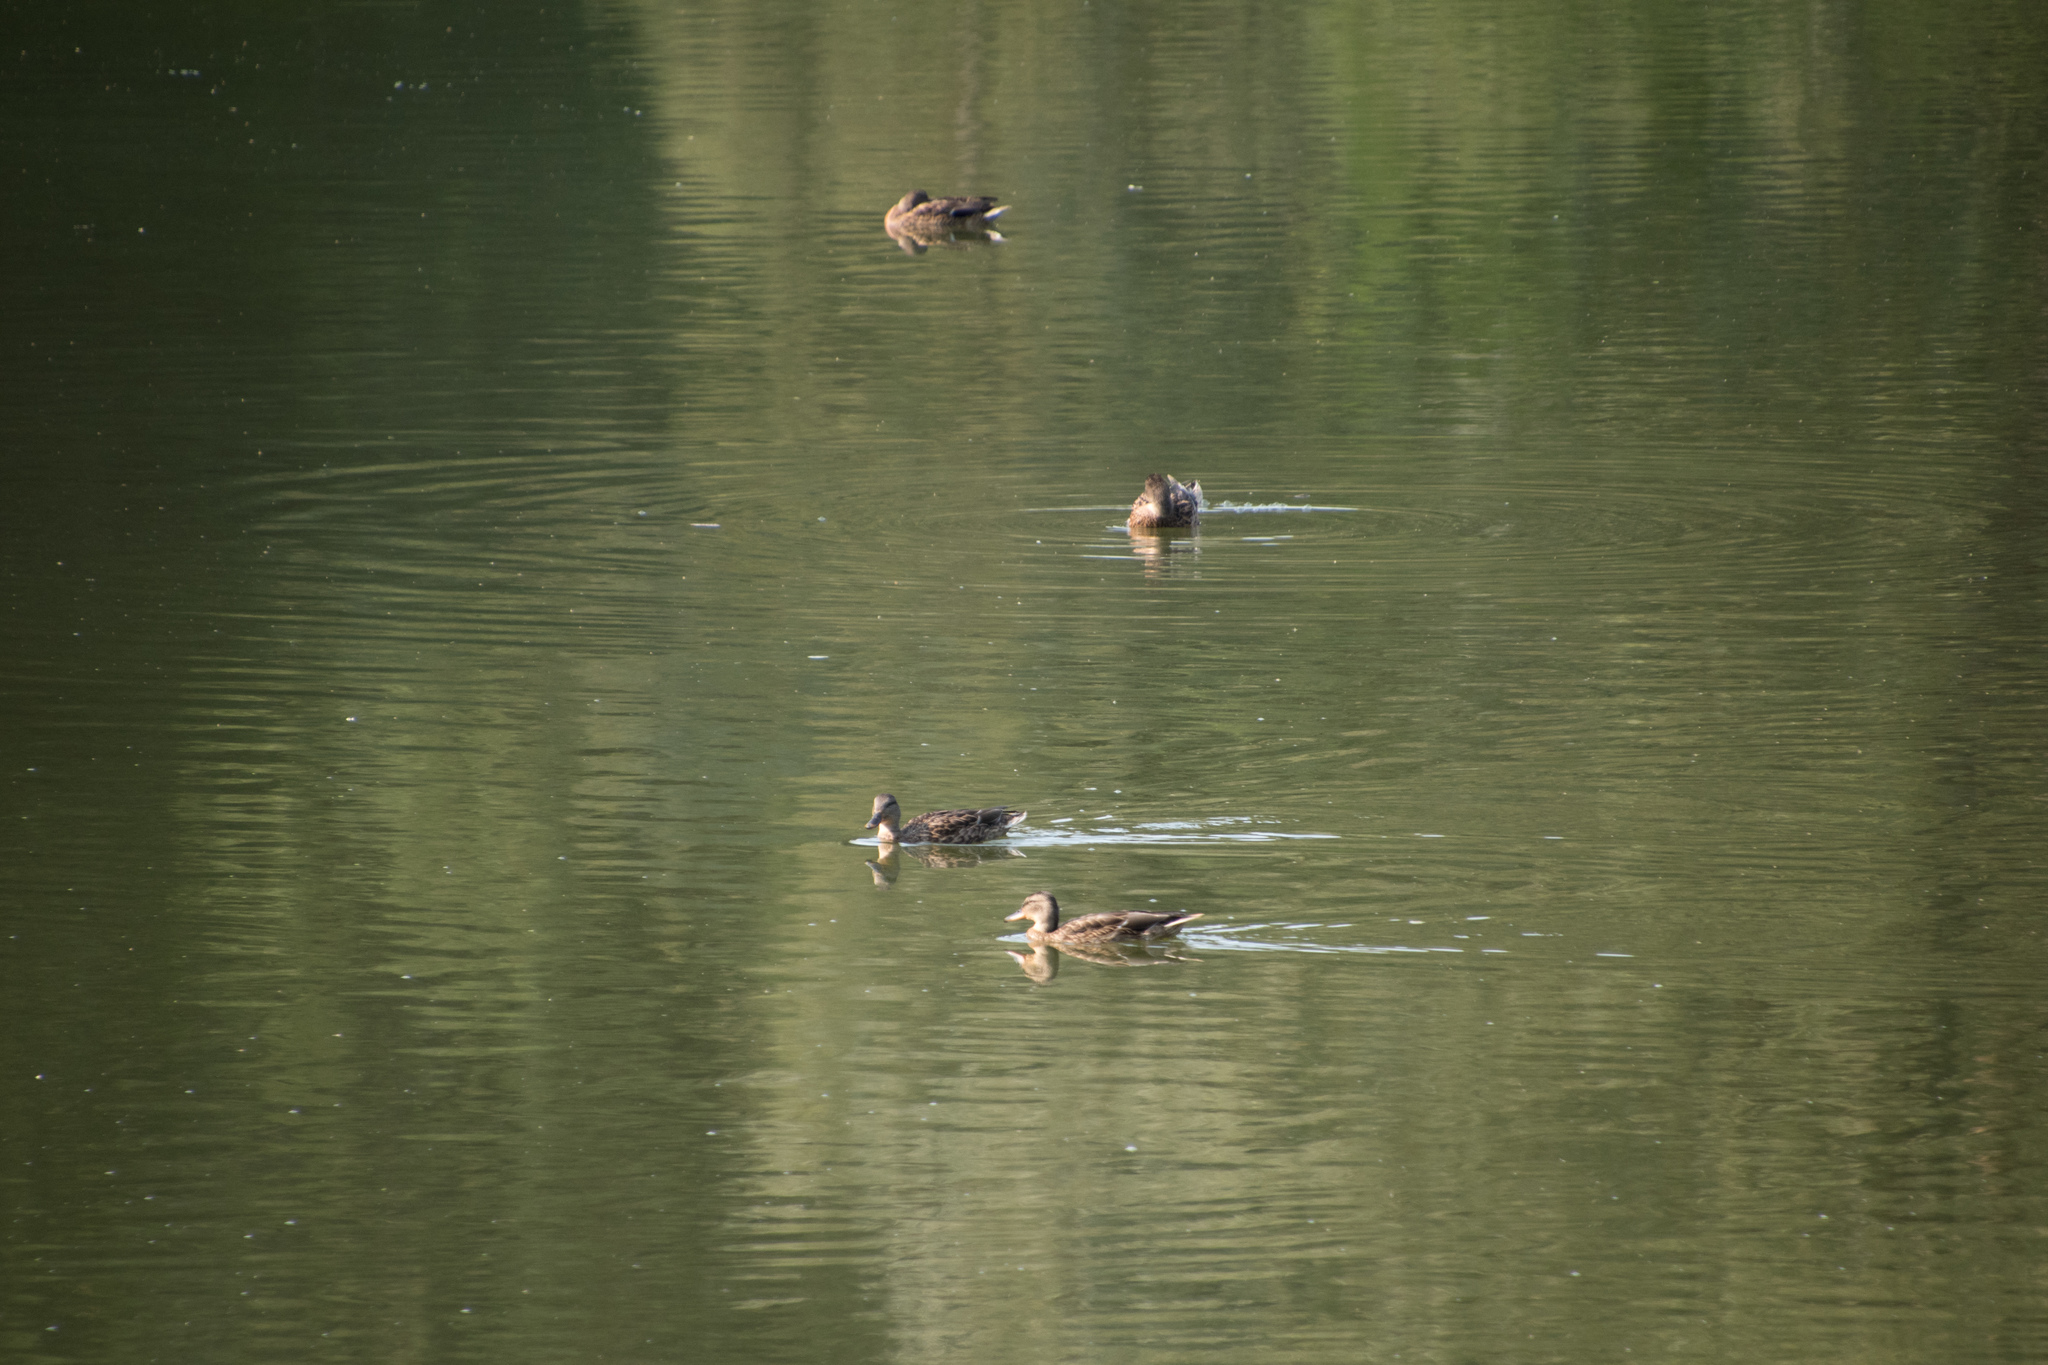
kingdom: Animalia
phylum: Chordata
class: Aves
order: Anseriformes
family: Anatidae
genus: Anas
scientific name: Anas platyrhynchos
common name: Mallard
